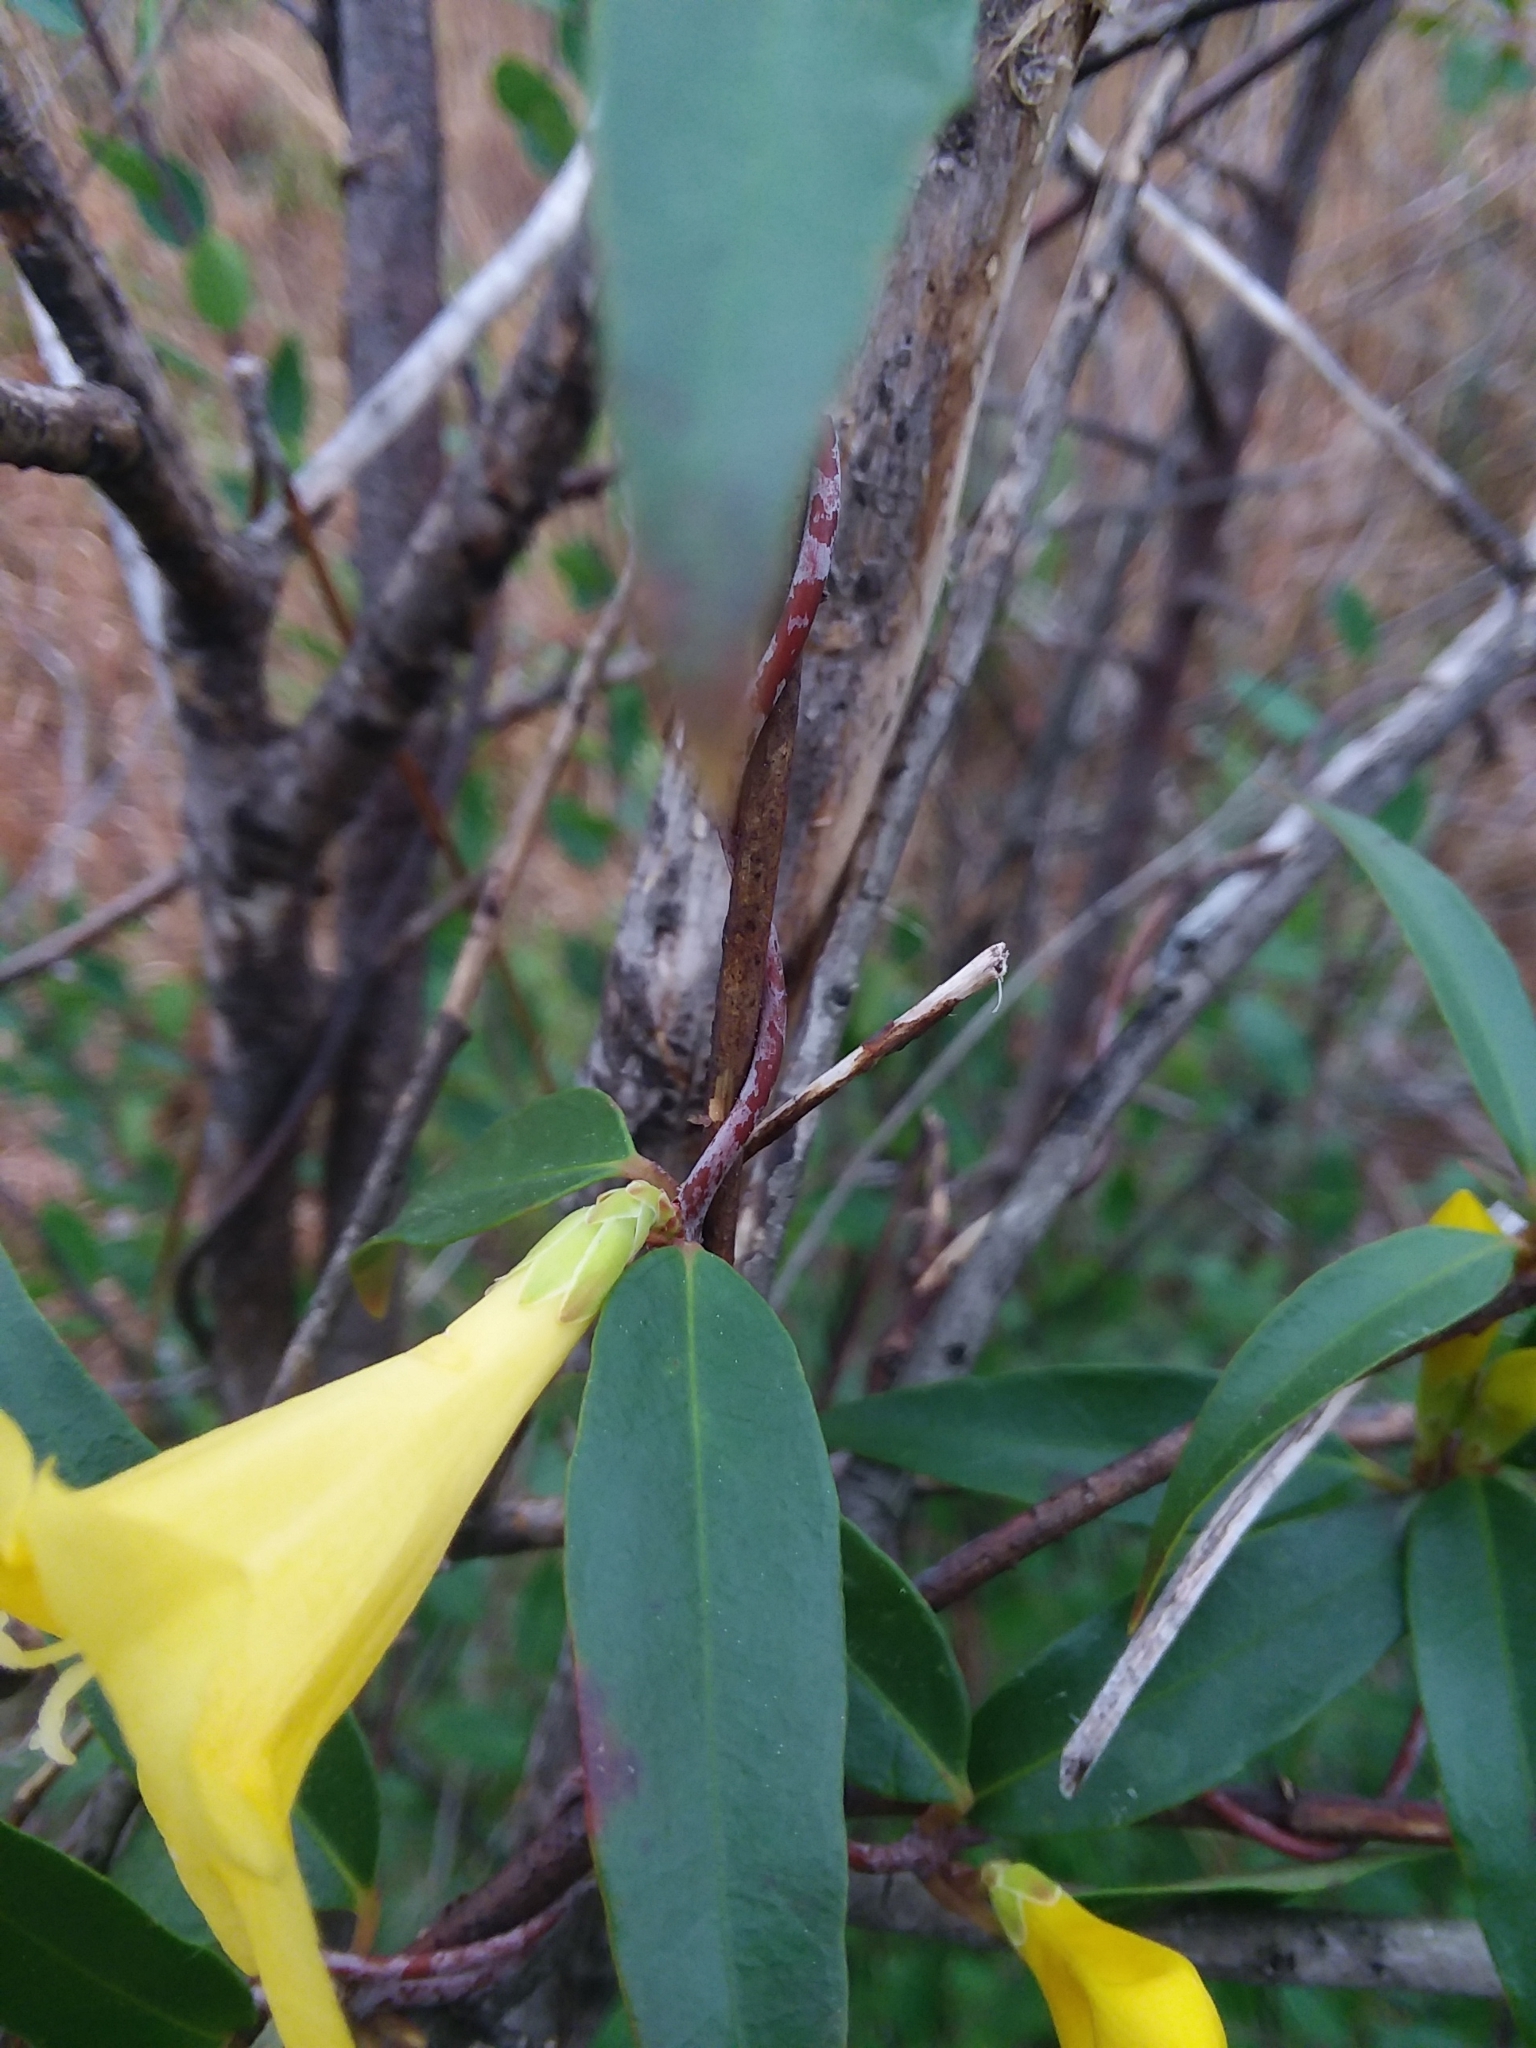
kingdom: Plantae
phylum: Tracheophyta
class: Magnoliopsida
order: Gentianales
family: Gelsemiaceae
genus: Gelsemium
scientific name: Gelsemium sempervirens
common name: Carolina-jasmine
